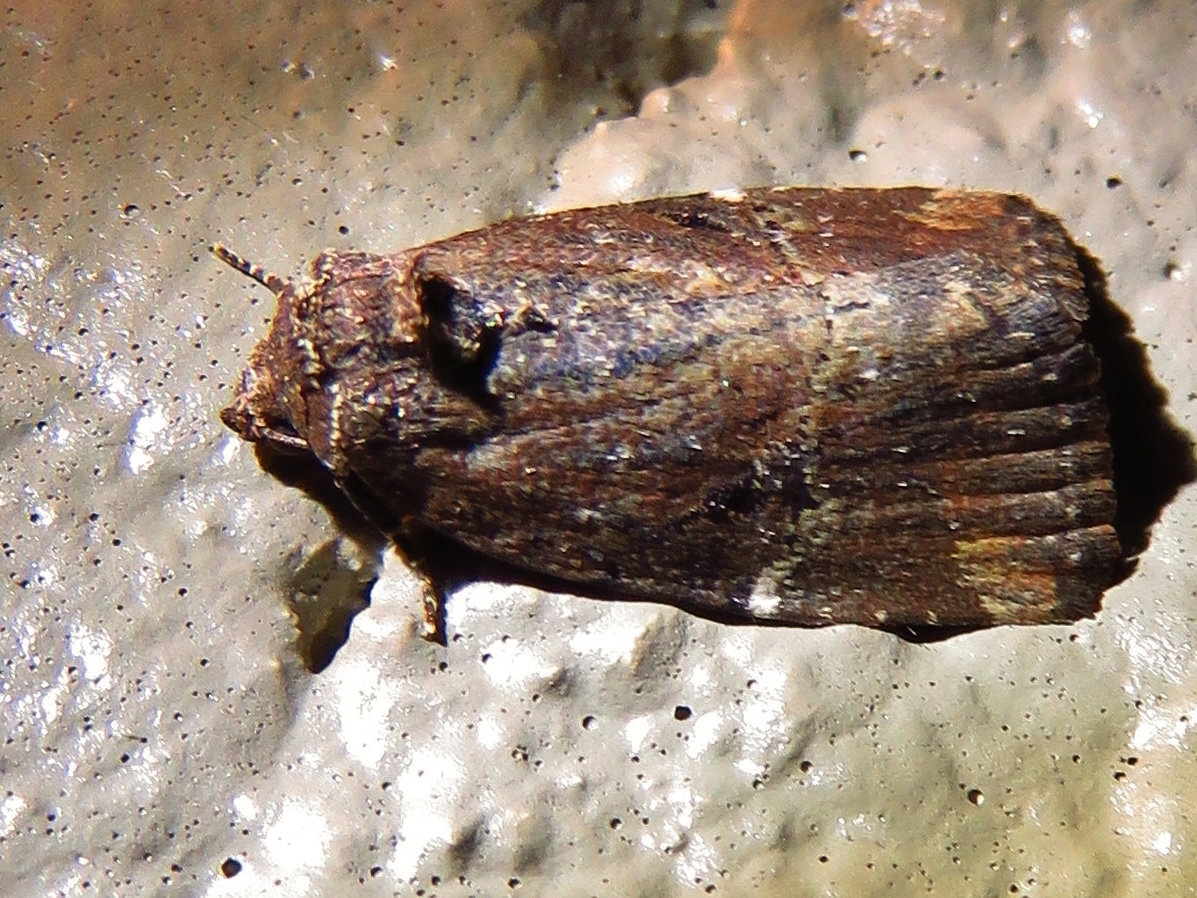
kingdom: Animalia
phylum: Arthropoda
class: Insecta
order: Lepidoptera
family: Noctuidae
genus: Elaphria
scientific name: Elaphria versicolor
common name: Fir harlequin
